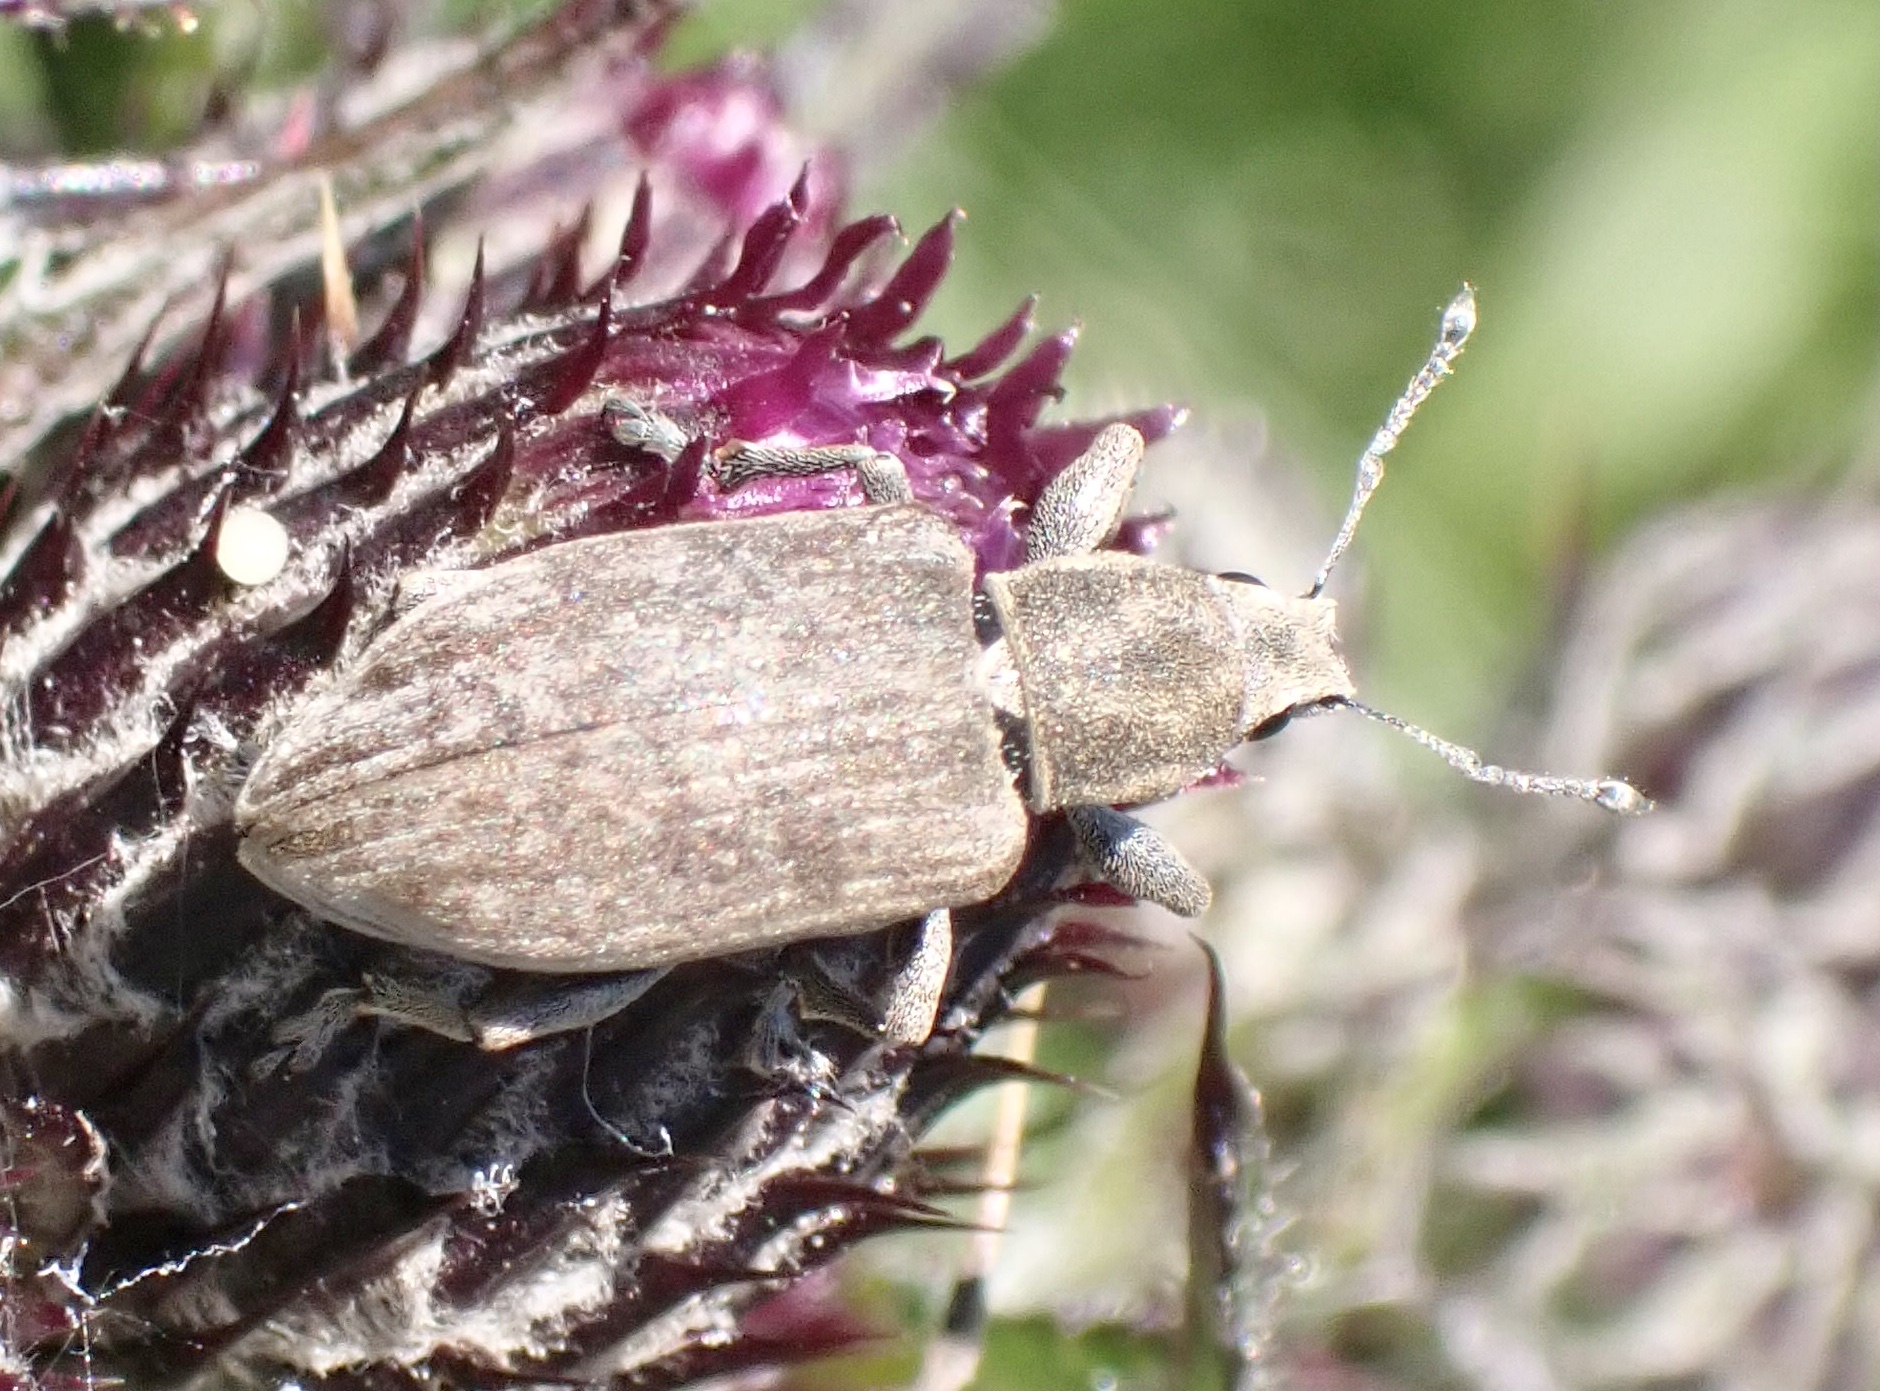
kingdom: Animalia
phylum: Arthropoda
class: Insecta
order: Coleoptera
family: Curculionidae
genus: Tanymecus
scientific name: Tanymecus palliatus
